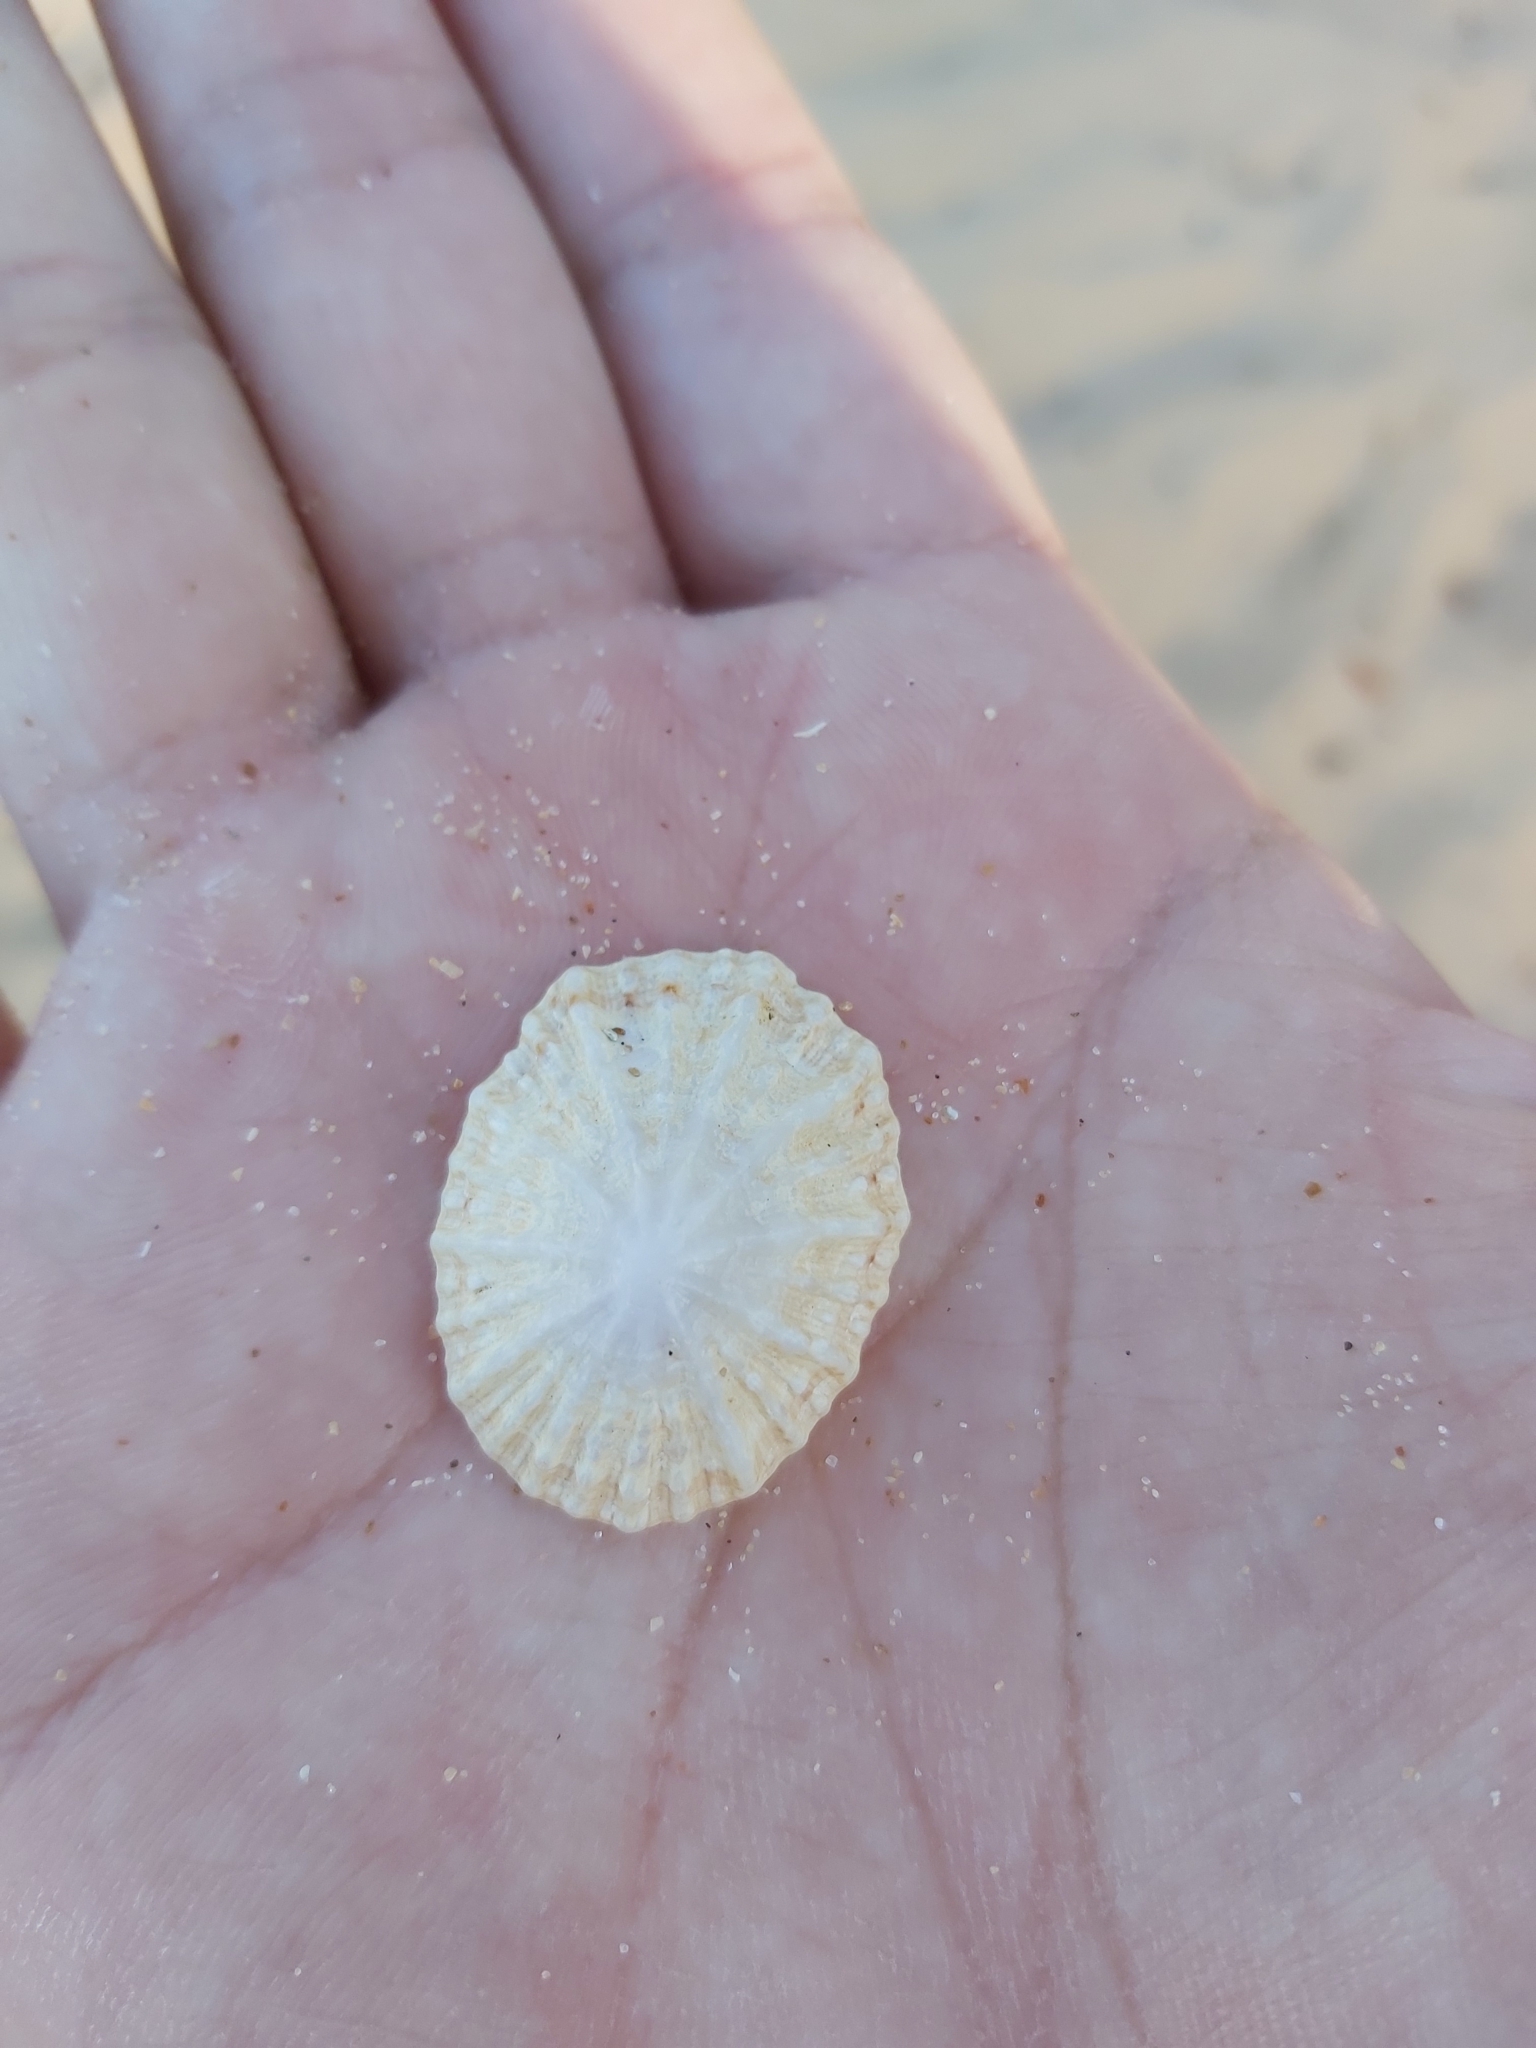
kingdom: Animalia
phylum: Mollusca
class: Gastropoda
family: Patellidae
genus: Scutellastra
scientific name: Scutellastra peronii
